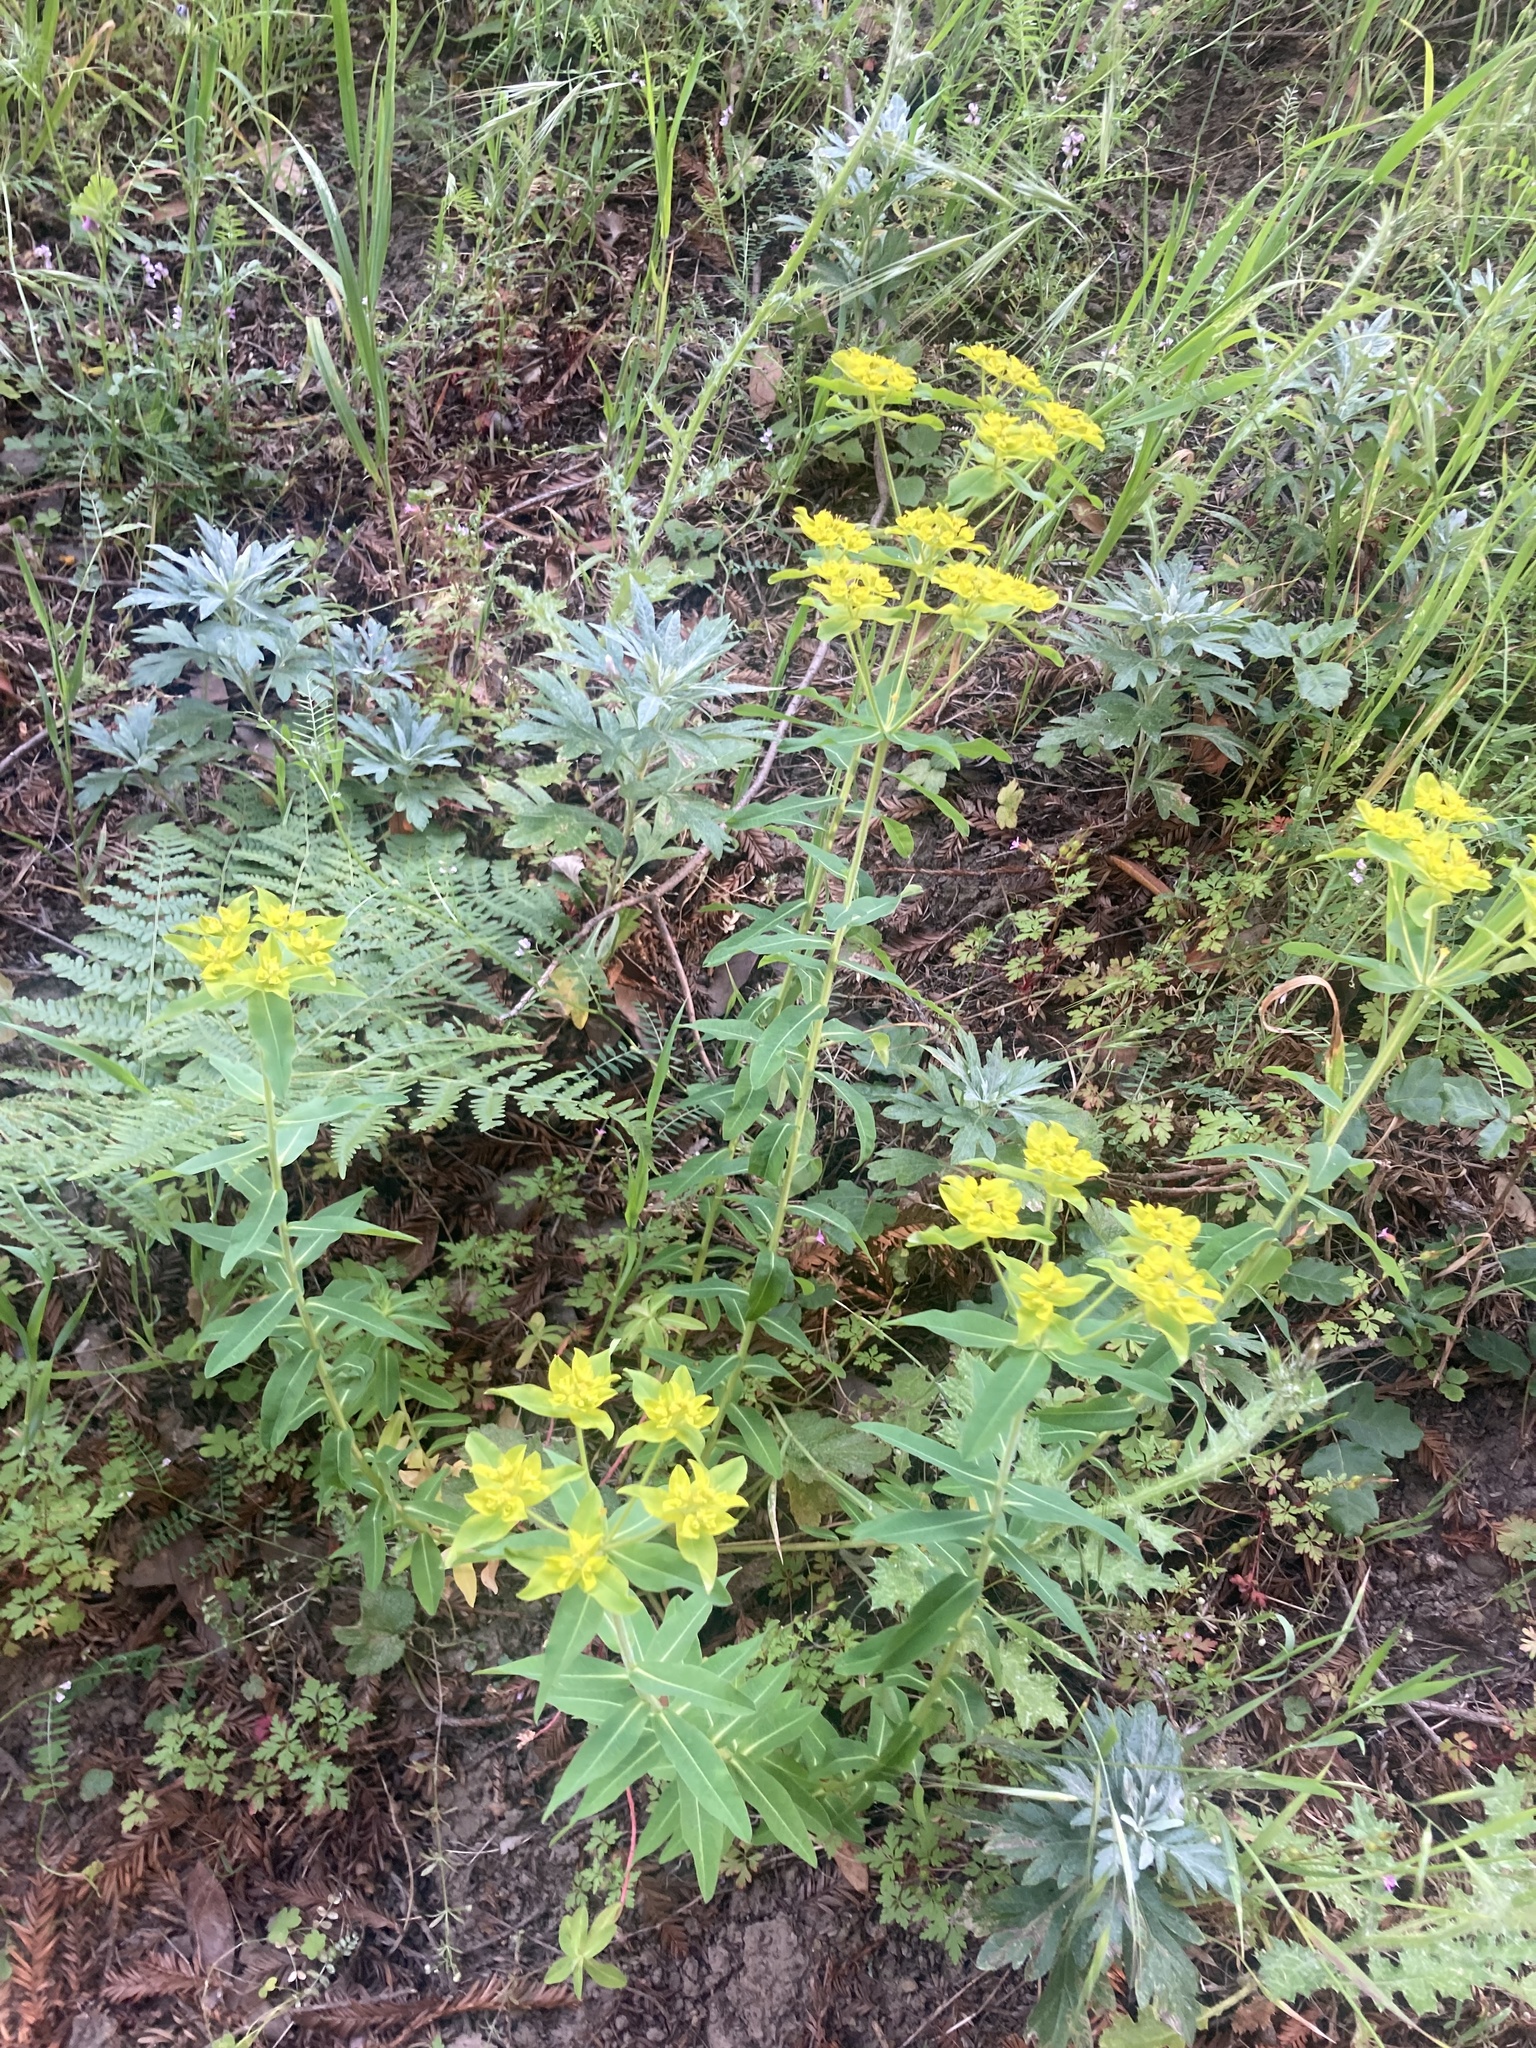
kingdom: Plantae
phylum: Tracheophyta
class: Magnoliopsida
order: Malpighiales
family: Euphorbiaceae
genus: Euphorbia
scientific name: Euphorbia oblongata
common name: Balkan spurge
